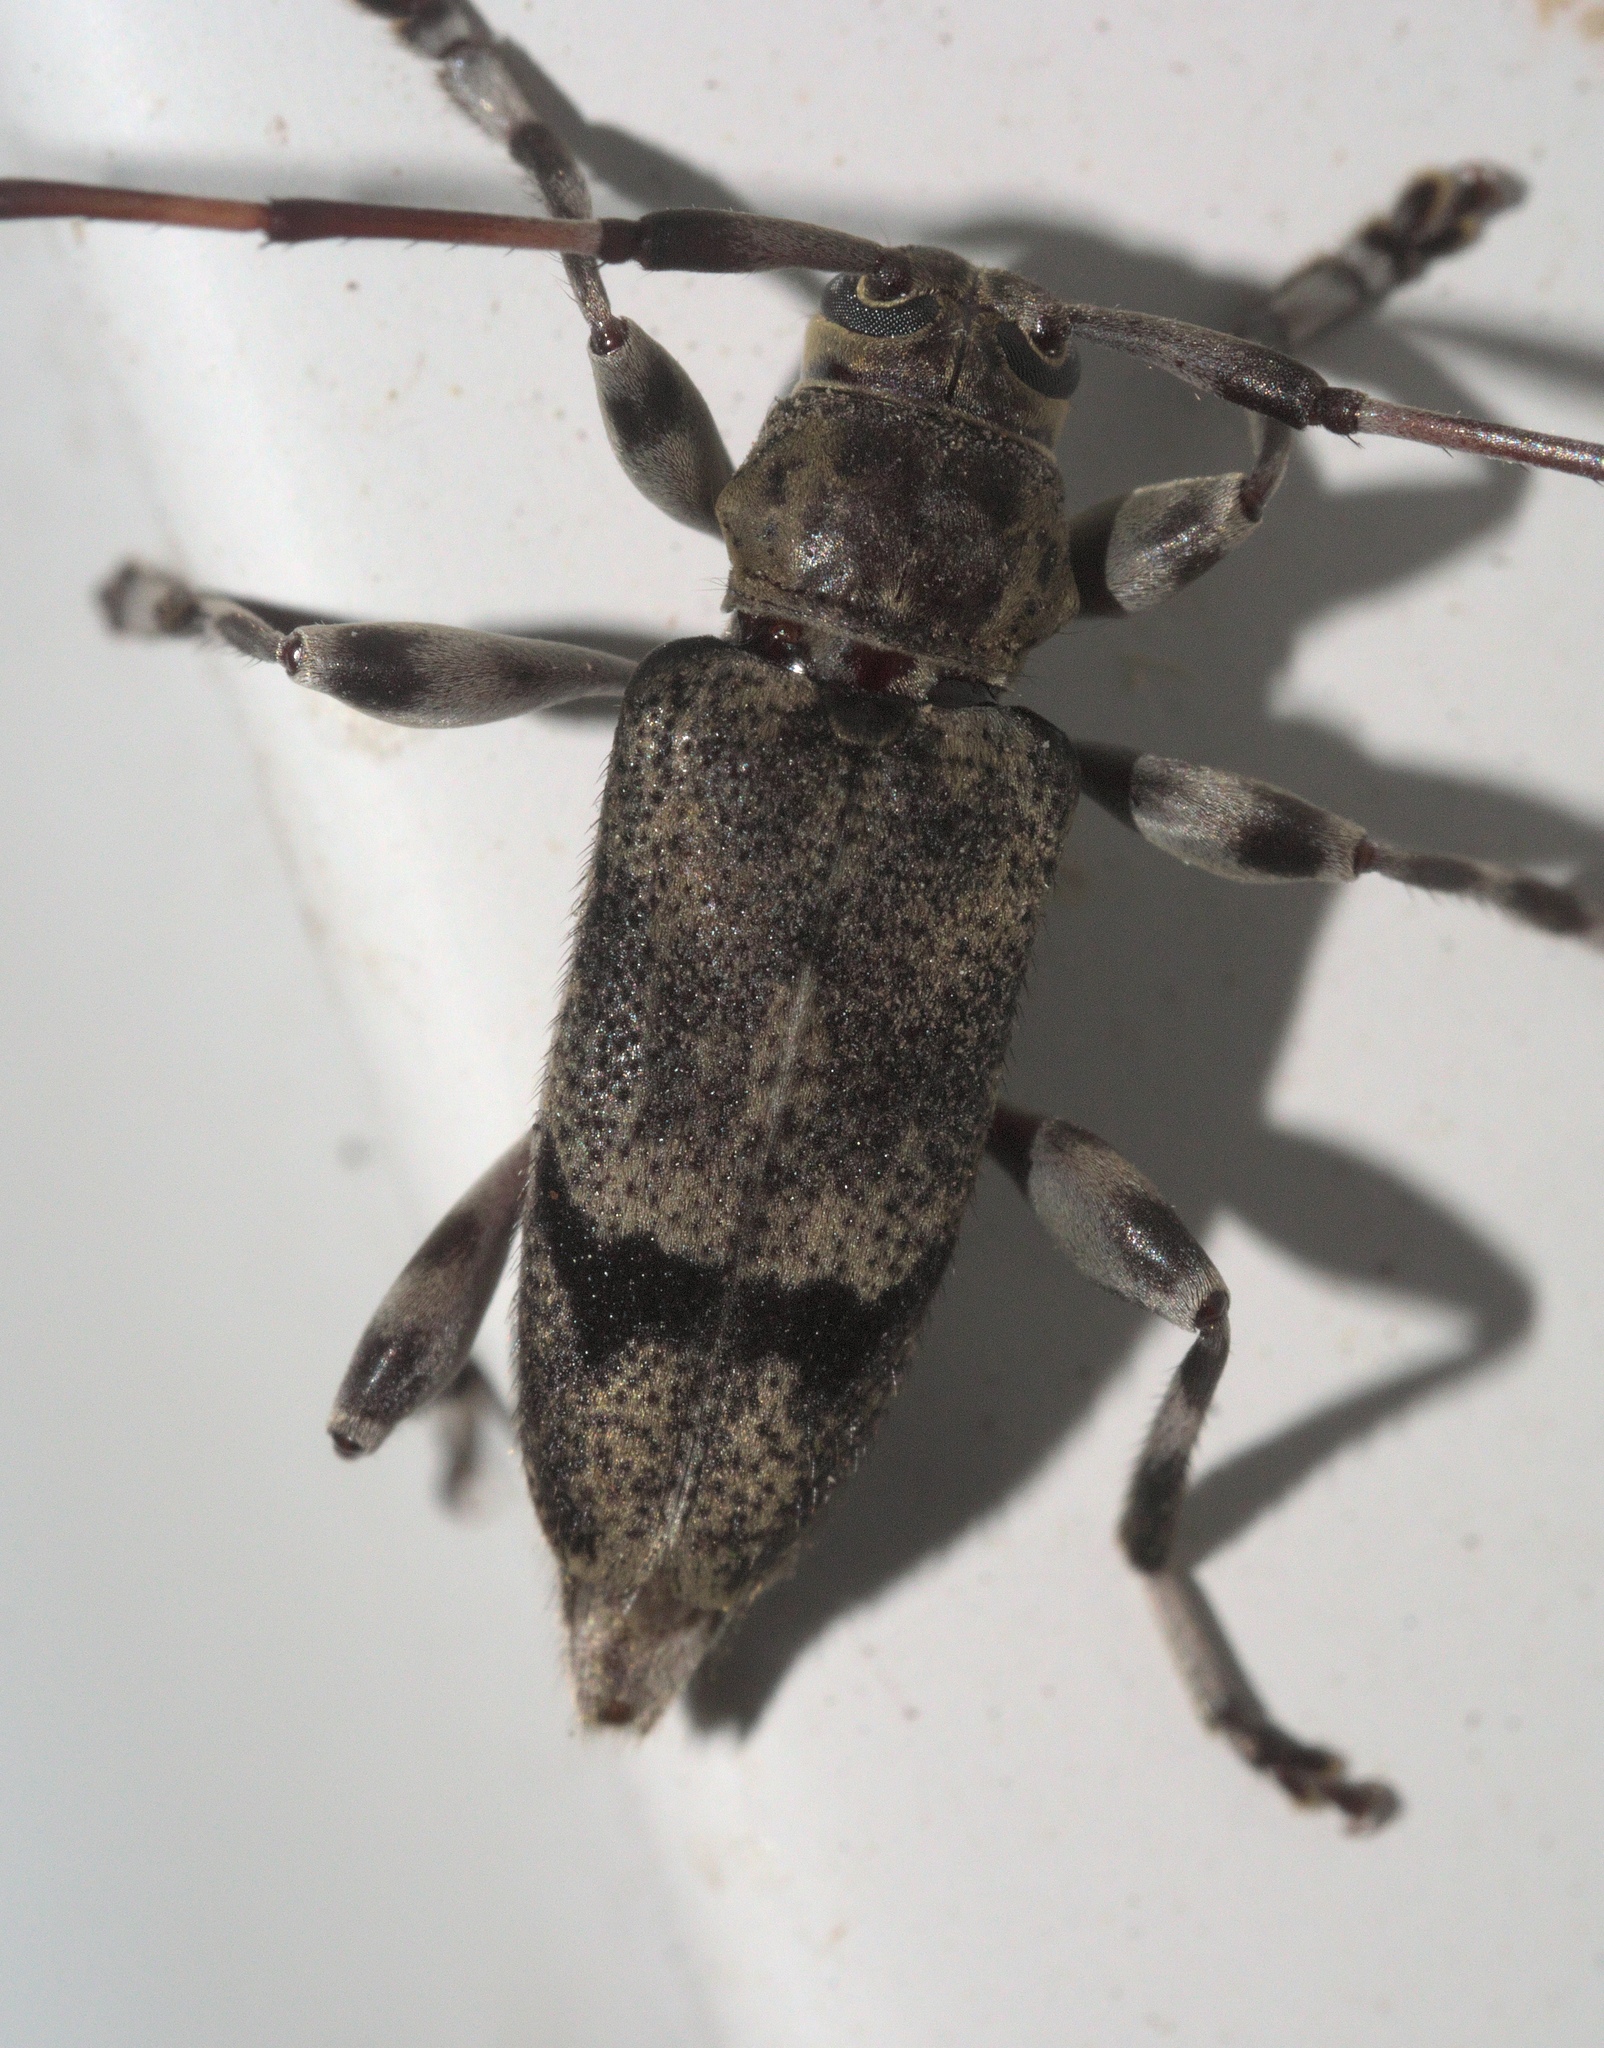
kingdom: Animalia
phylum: Arthropoda
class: Insecta
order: Coleoptera
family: Cerambycidae
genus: Graphisurus
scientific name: Graphisurus despectus
